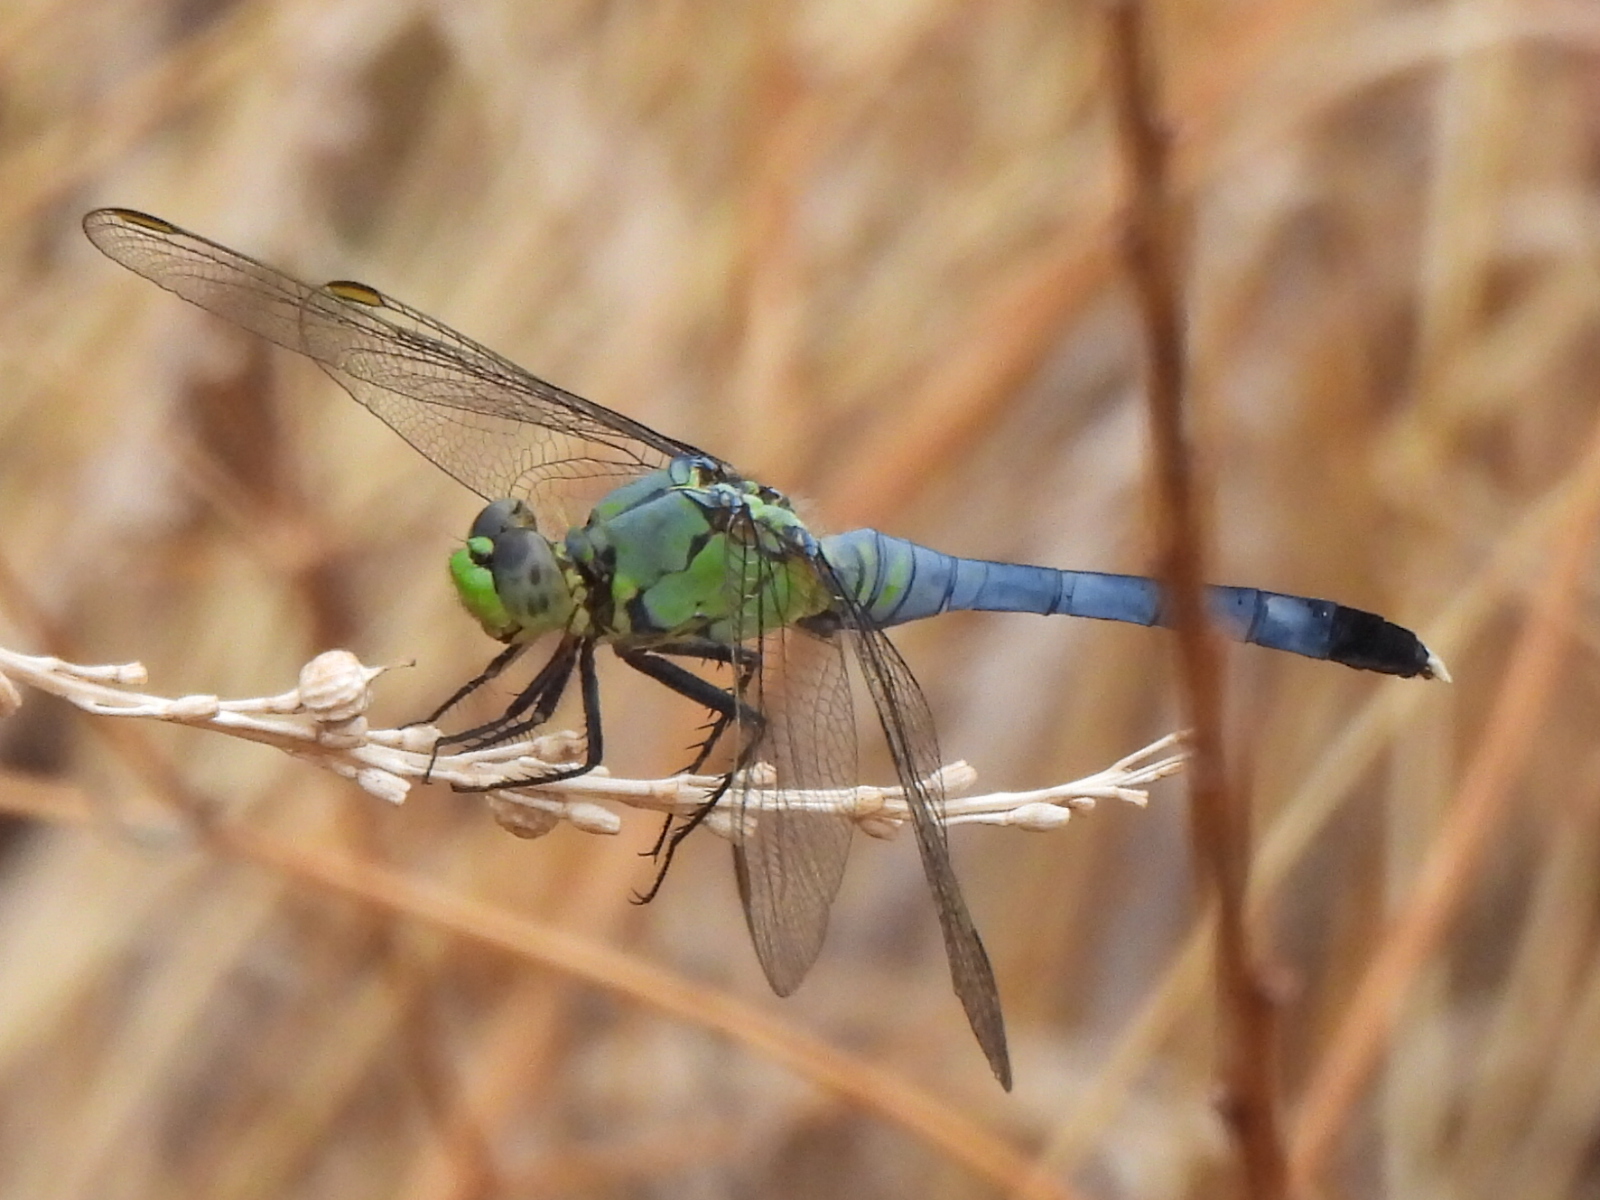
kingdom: Animalia
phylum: Arthropoda
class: Insecta
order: Odonata
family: Libellulidae
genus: Erythemis
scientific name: Erythemis simplicicollis
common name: Eastern pondhawk
